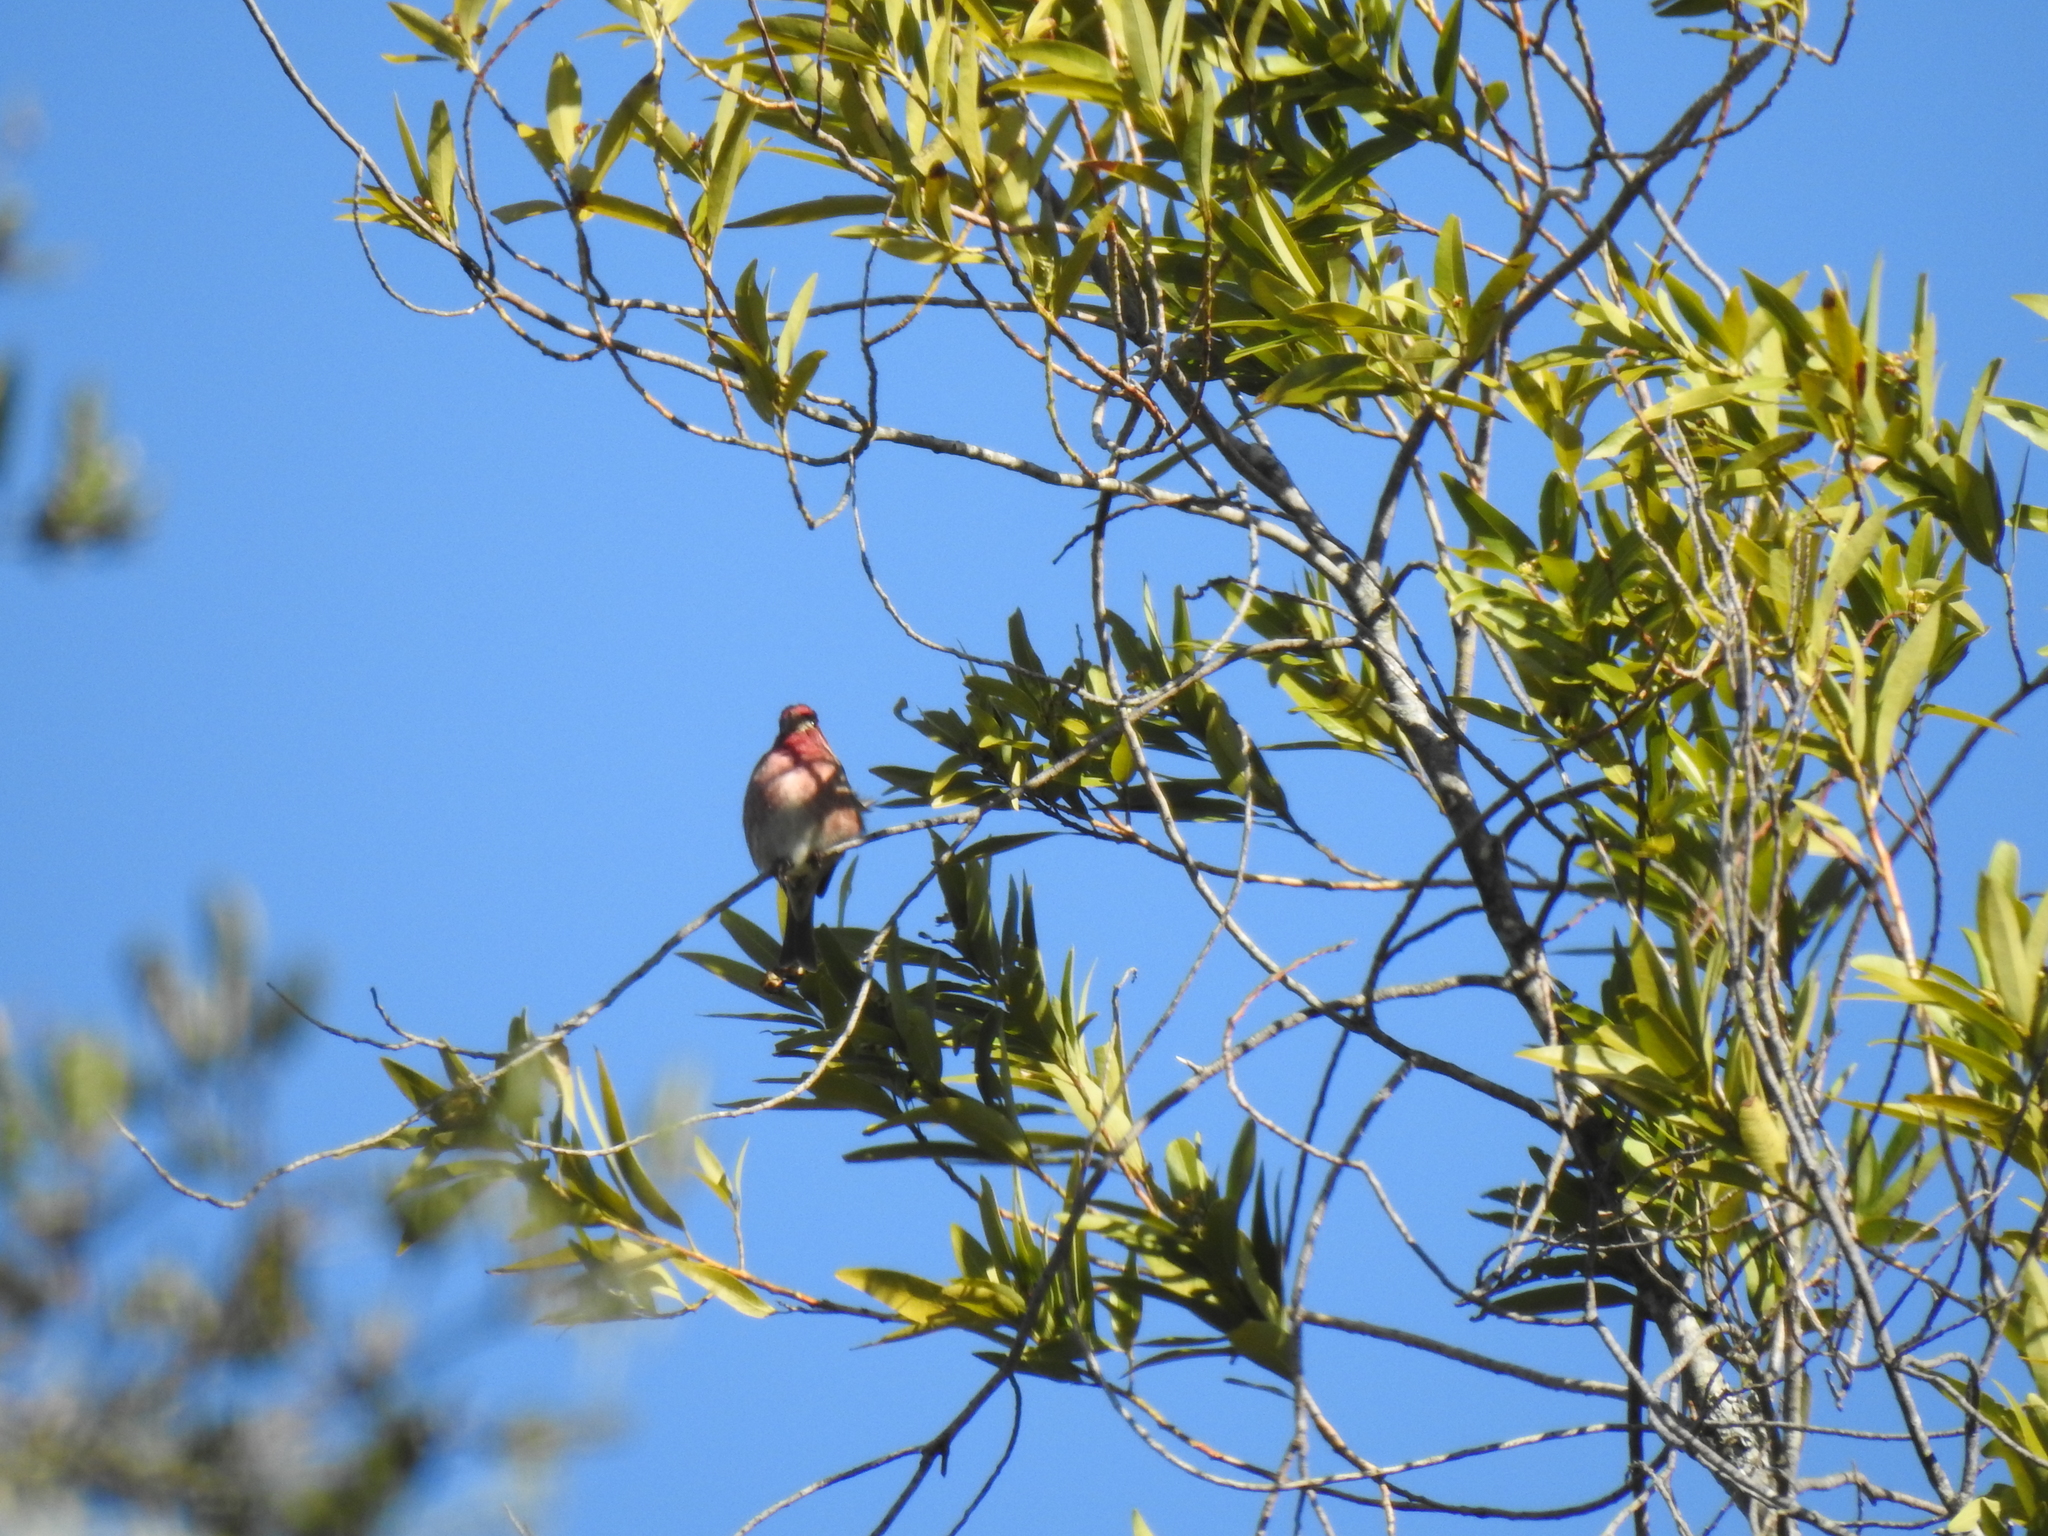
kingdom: Animalia
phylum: Chordata
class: Aves
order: Passeriformes
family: Fringillidae
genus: Haemorhous
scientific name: Haemorhous purpureus
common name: Purple finch
